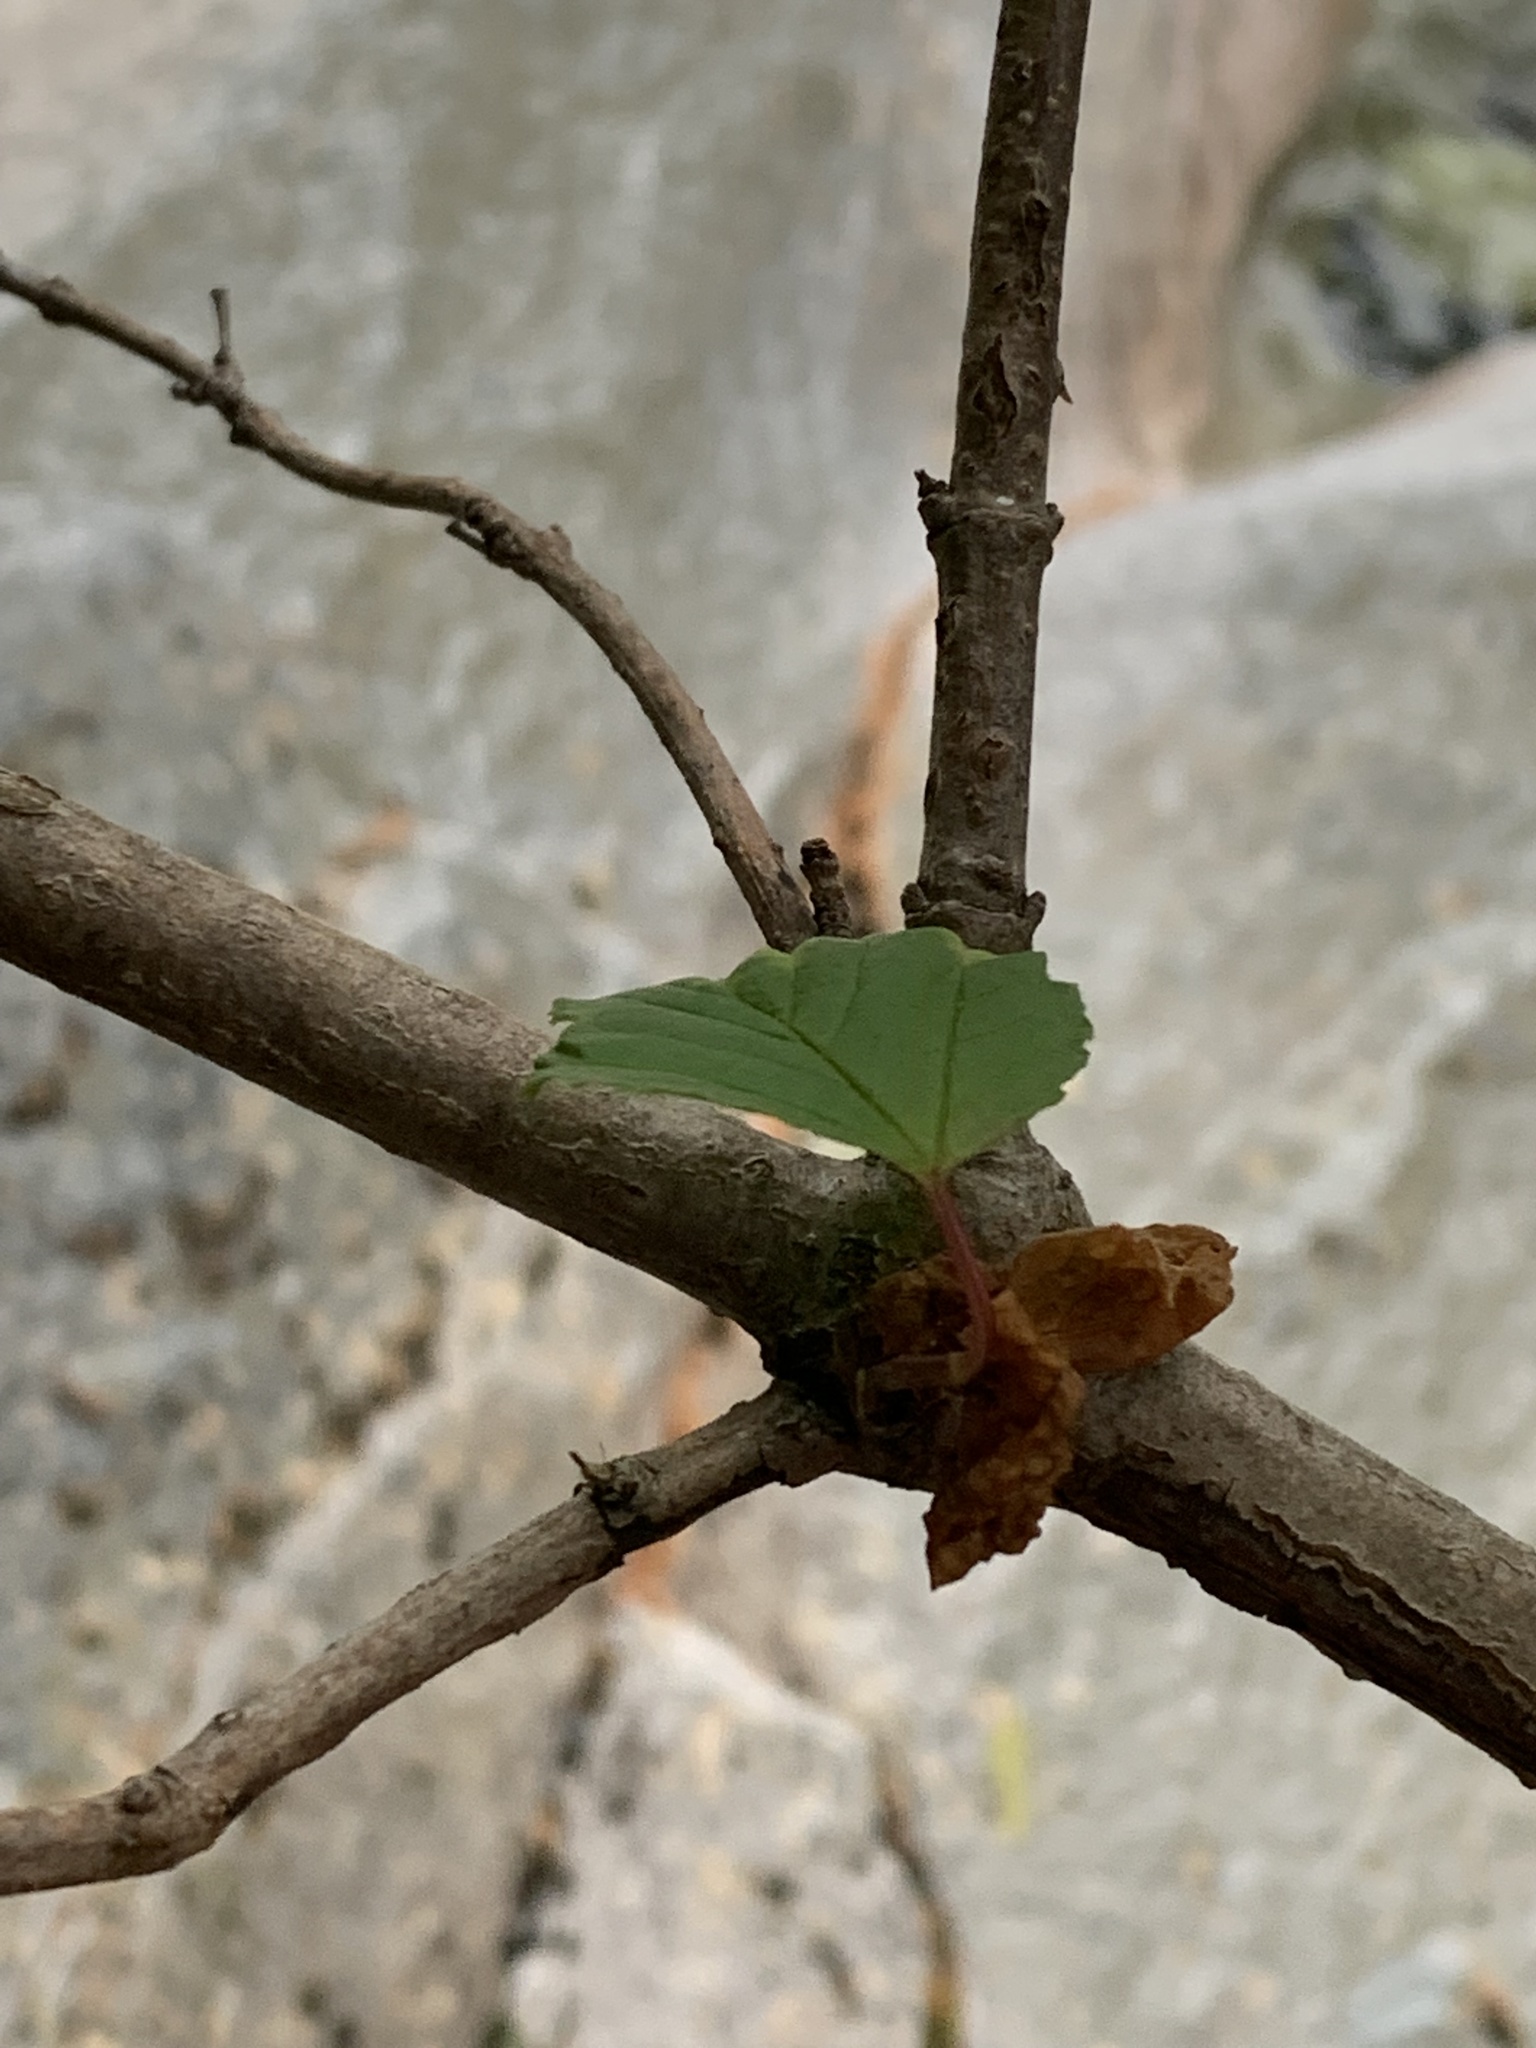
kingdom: Plantae
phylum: Tracheophyta
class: Magnoliopsida
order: Dipsacales
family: Viburnaceae
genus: Viburnum
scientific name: Viburnum edule
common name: Mooseberry
